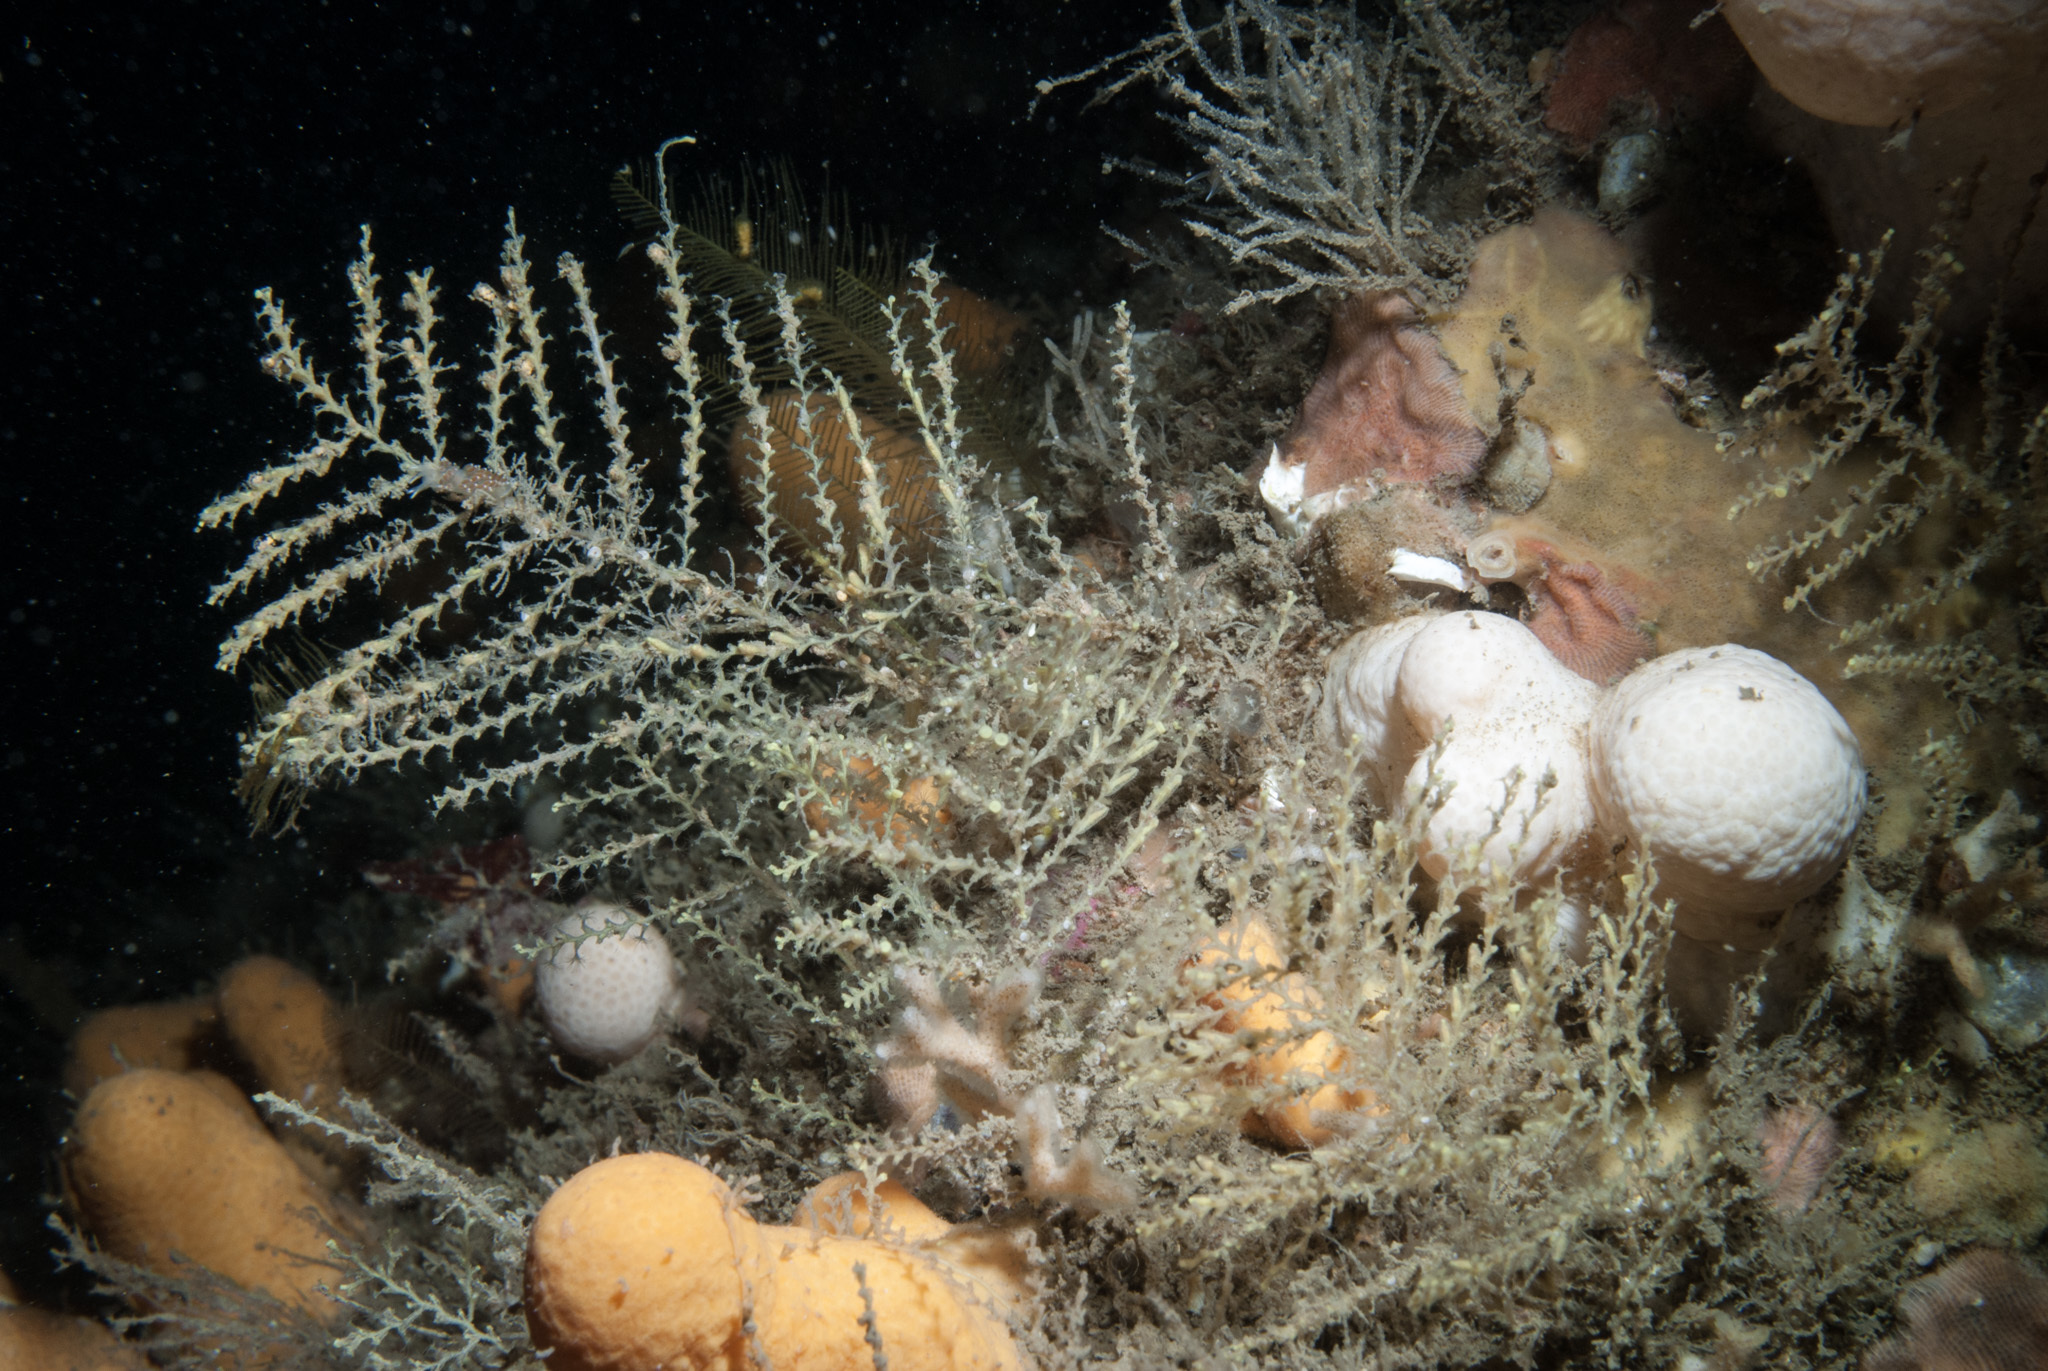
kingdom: Animalia
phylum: Cnidaria
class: Hydrozoa
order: Leptothecata
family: Sertularellidae
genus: Sertularella
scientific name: Sertularella gayi
